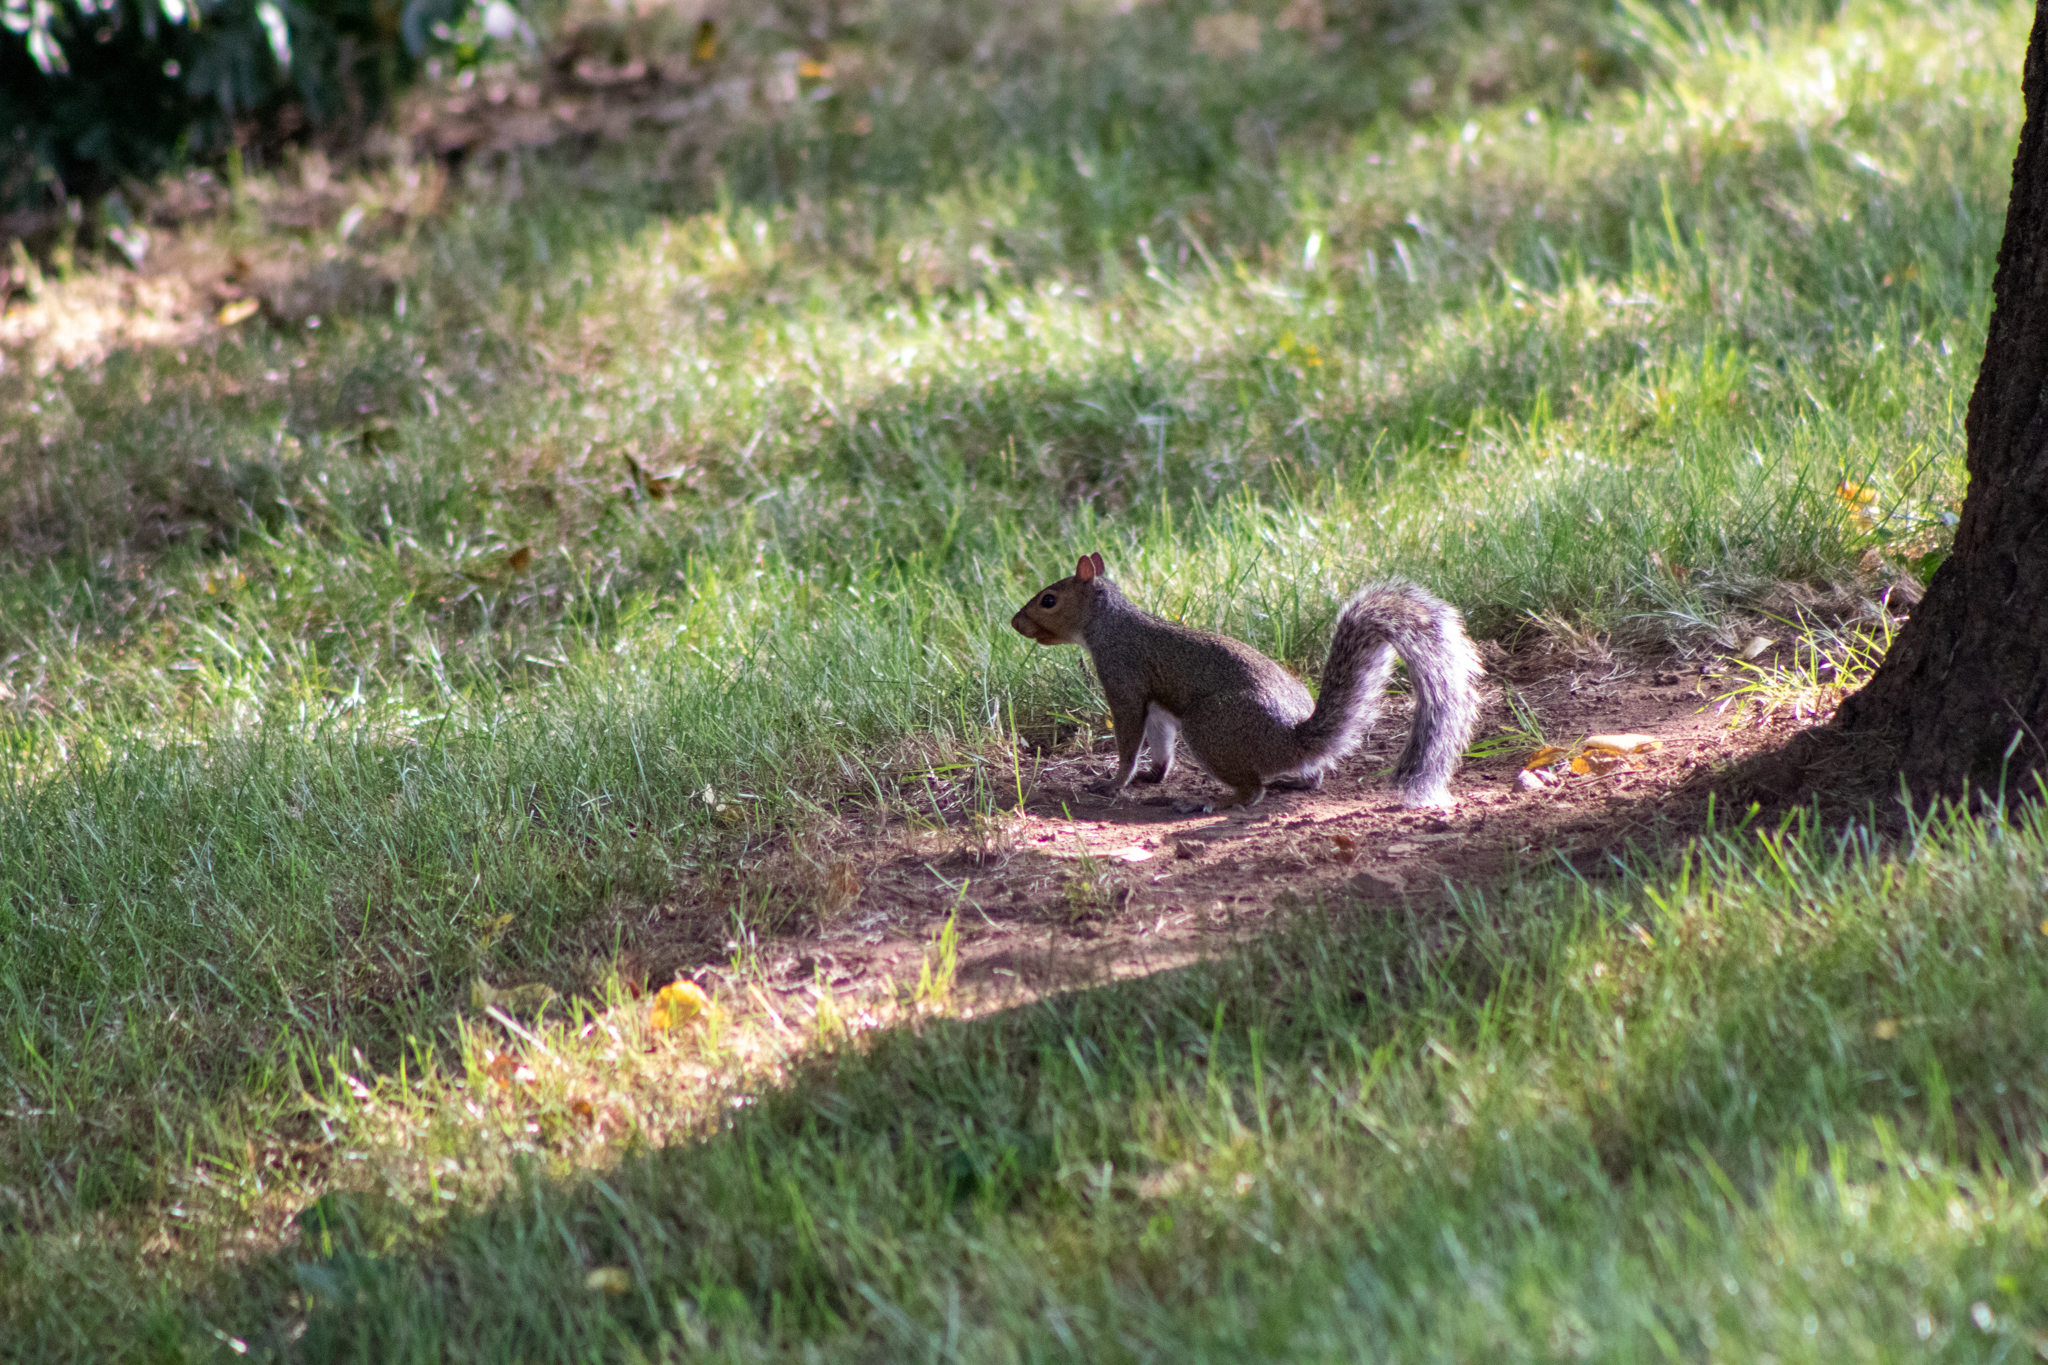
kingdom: Animalia
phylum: Chordata
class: Mammalia
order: Rodentia
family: Sciuridae
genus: Sciurus
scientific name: Sciurus carolinensis
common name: Eastern gray squirrel
